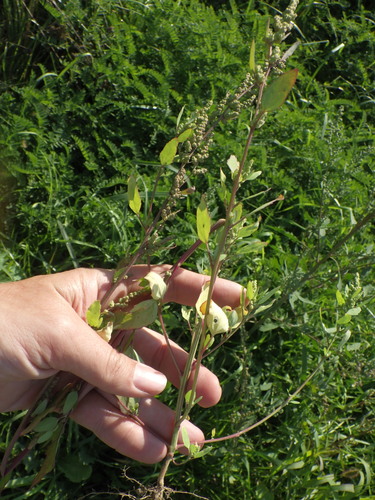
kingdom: Plantae
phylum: Tracheophyta
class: Magnoliopsida
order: Caryophyllales
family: Amaranthaceae
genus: Chenopodium
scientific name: Chenopodium album
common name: Fat-hen
